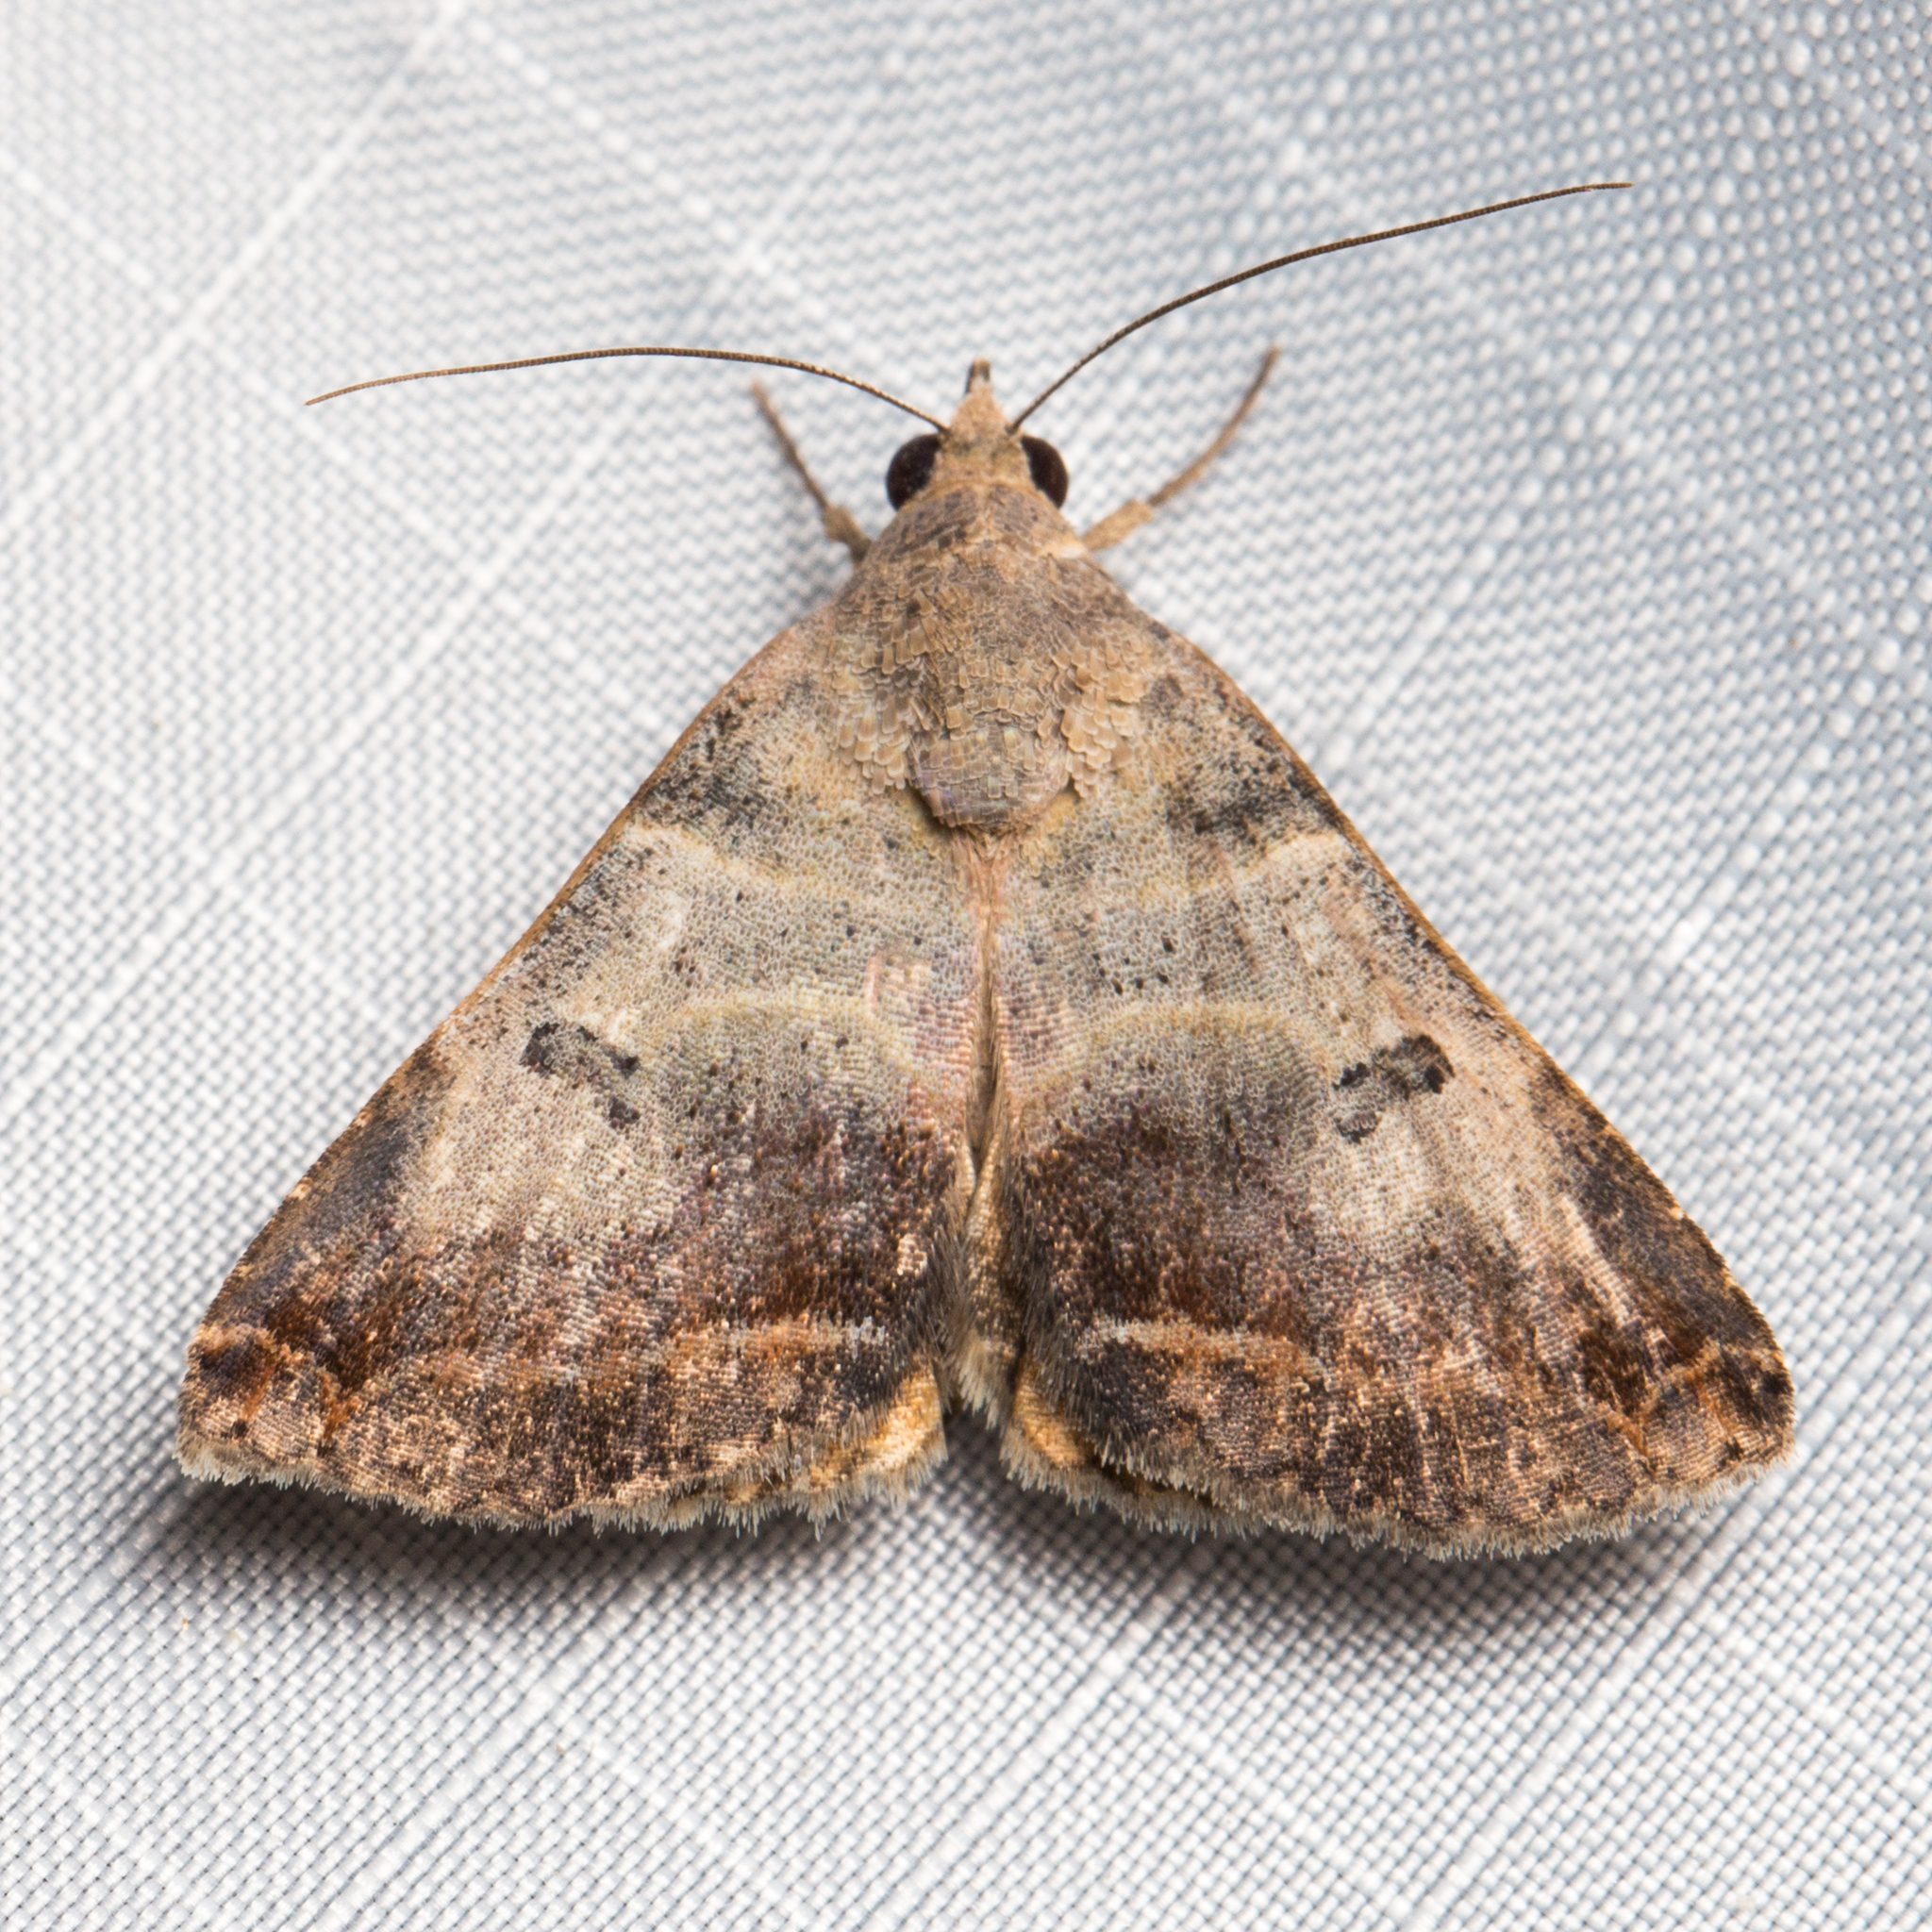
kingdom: Animalia
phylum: Arthropoda
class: Insecta
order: Lepidoptera
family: Erebidae
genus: Panula
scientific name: Panula inconstans
